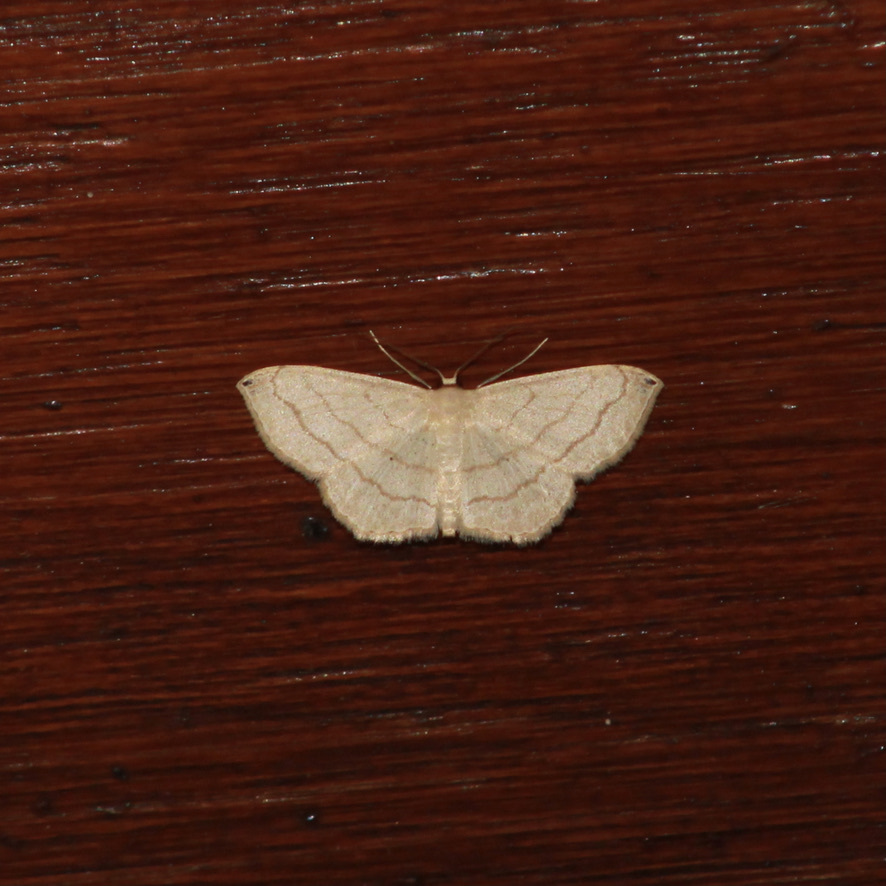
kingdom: Animalia
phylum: Arthropoda
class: Insecta
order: Lepidoptera
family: Geometridae
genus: Scopula
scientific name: Scopula umbilicata
